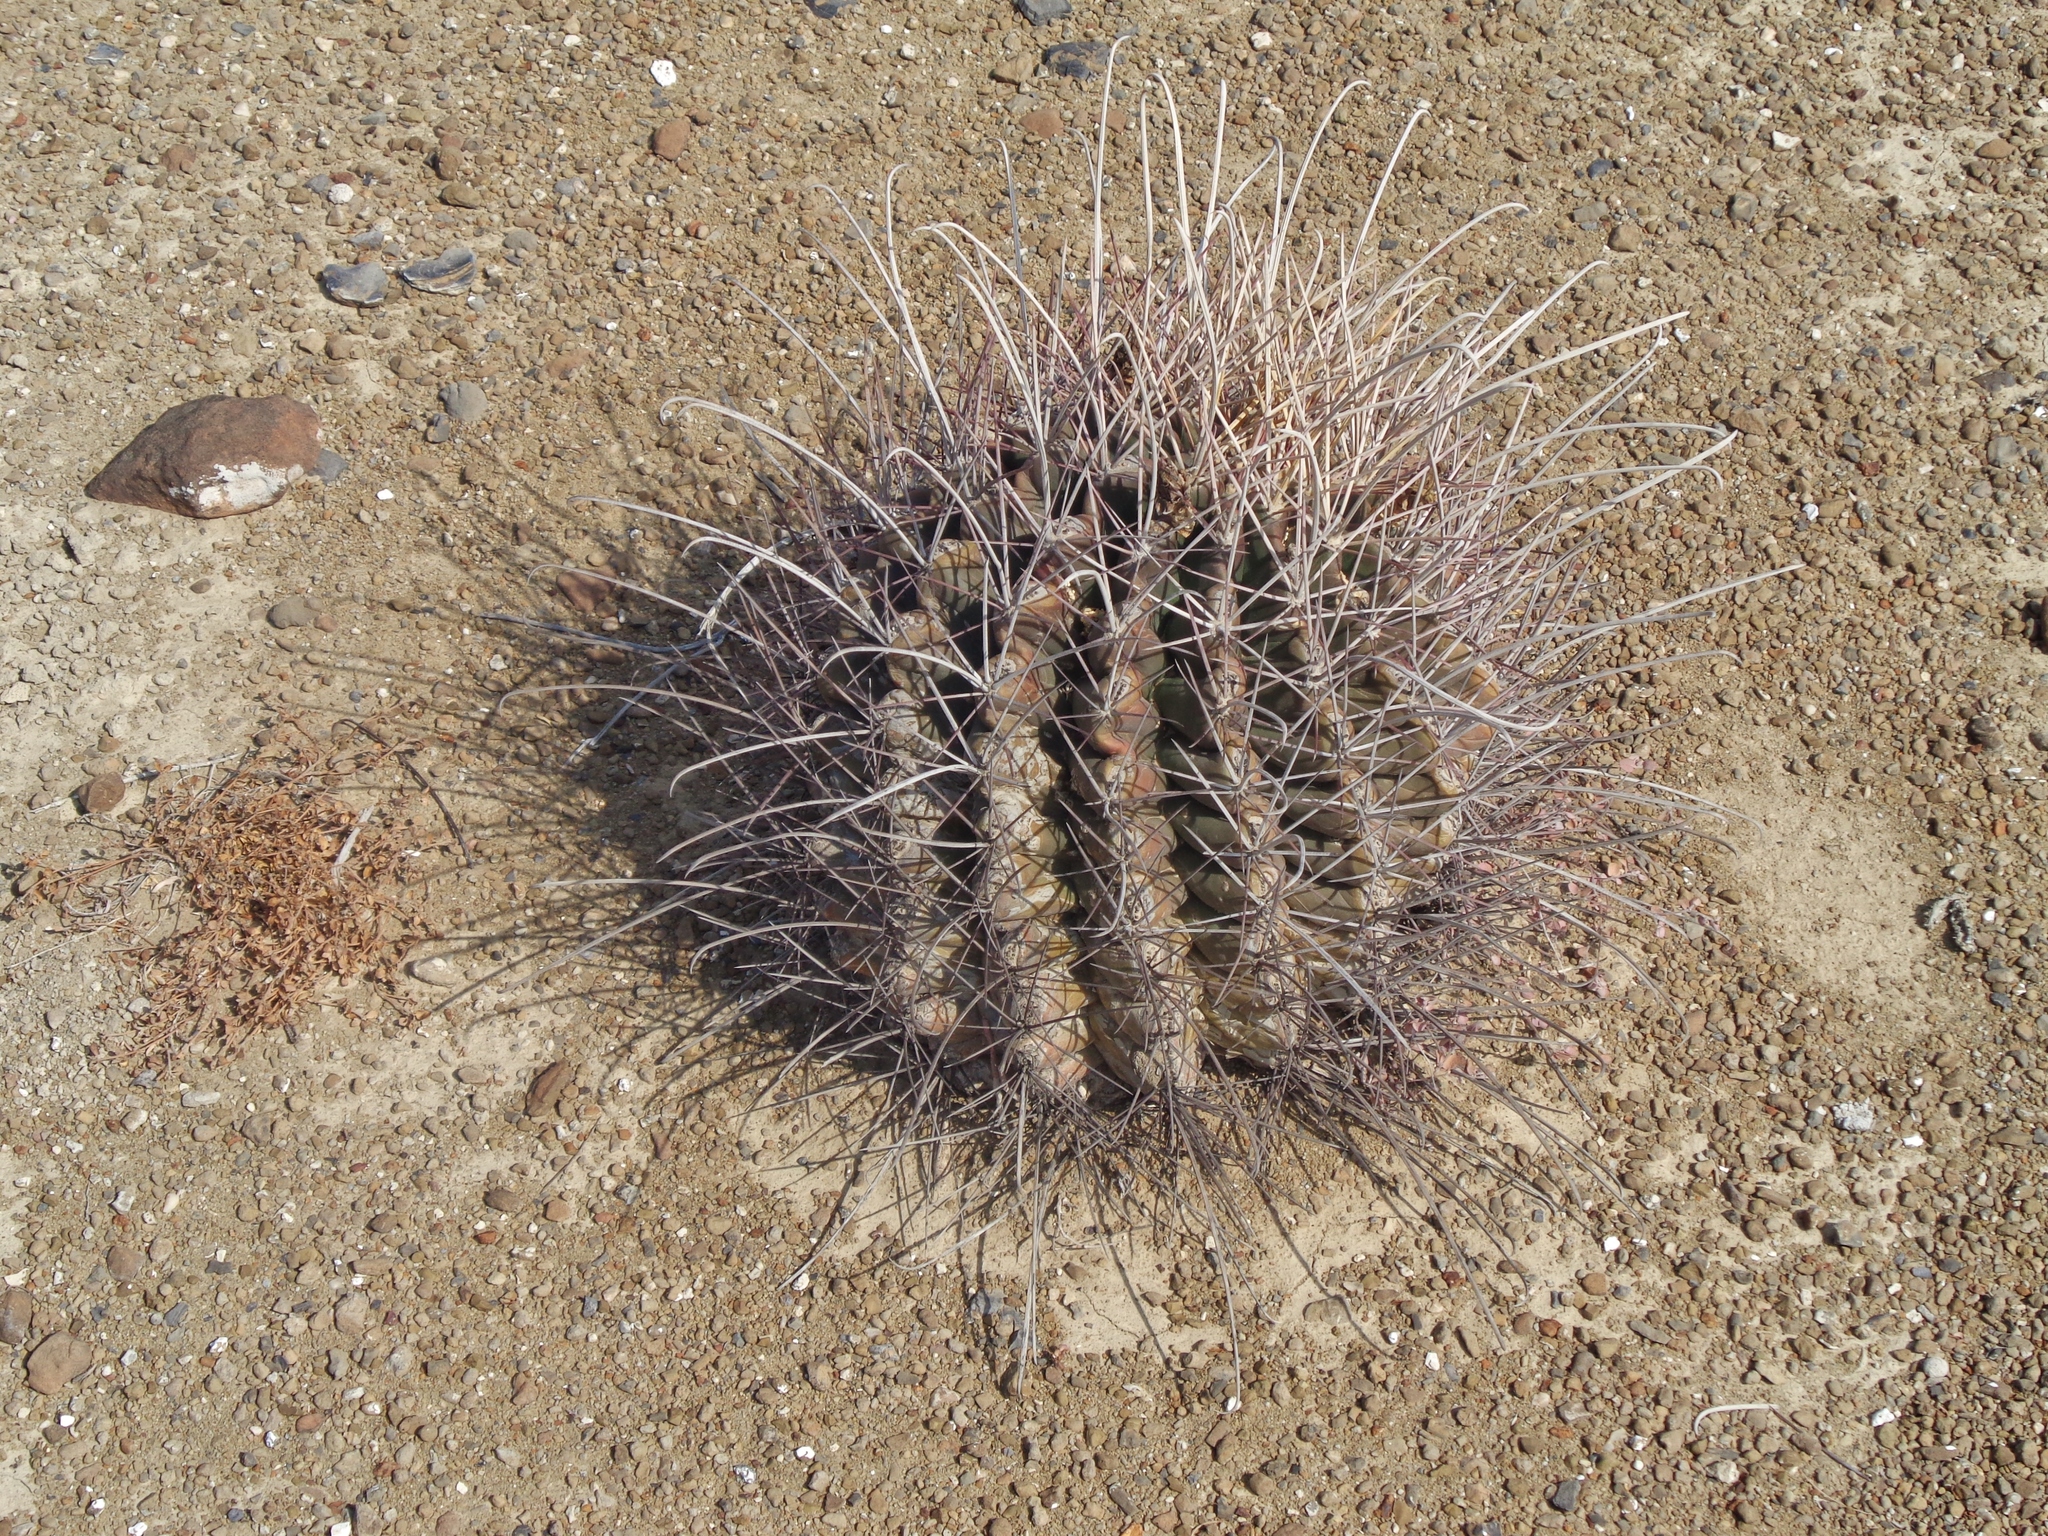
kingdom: Plantae
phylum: Tracheophyta
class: Magnoliopsida
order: Caryophyllales
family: Cactaceae
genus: Bisnaga
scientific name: Bisnaga hamatacantha
